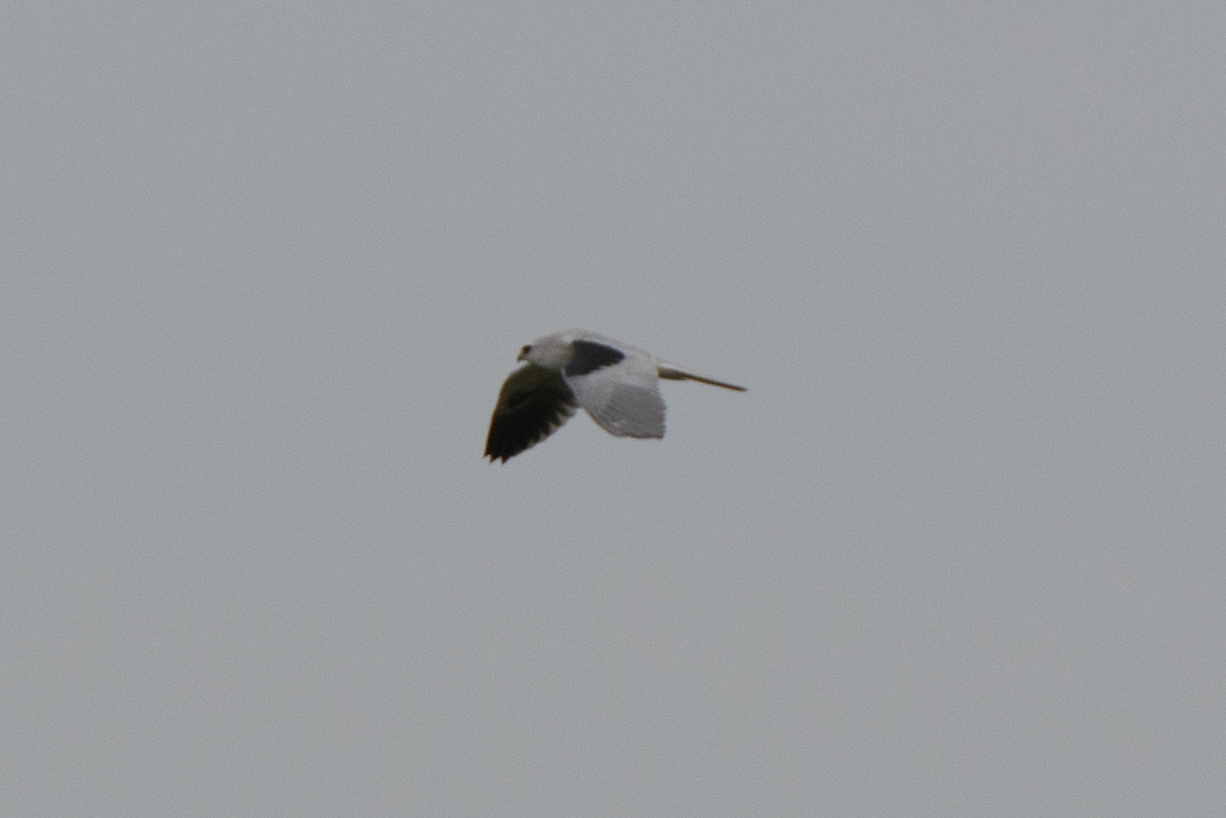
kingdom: Animalia
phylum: Chordata
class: Aves
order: Accipitriformes
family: Accipitridae
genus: Elanus
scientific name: Elanus leucurus
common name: White-tailed kite
